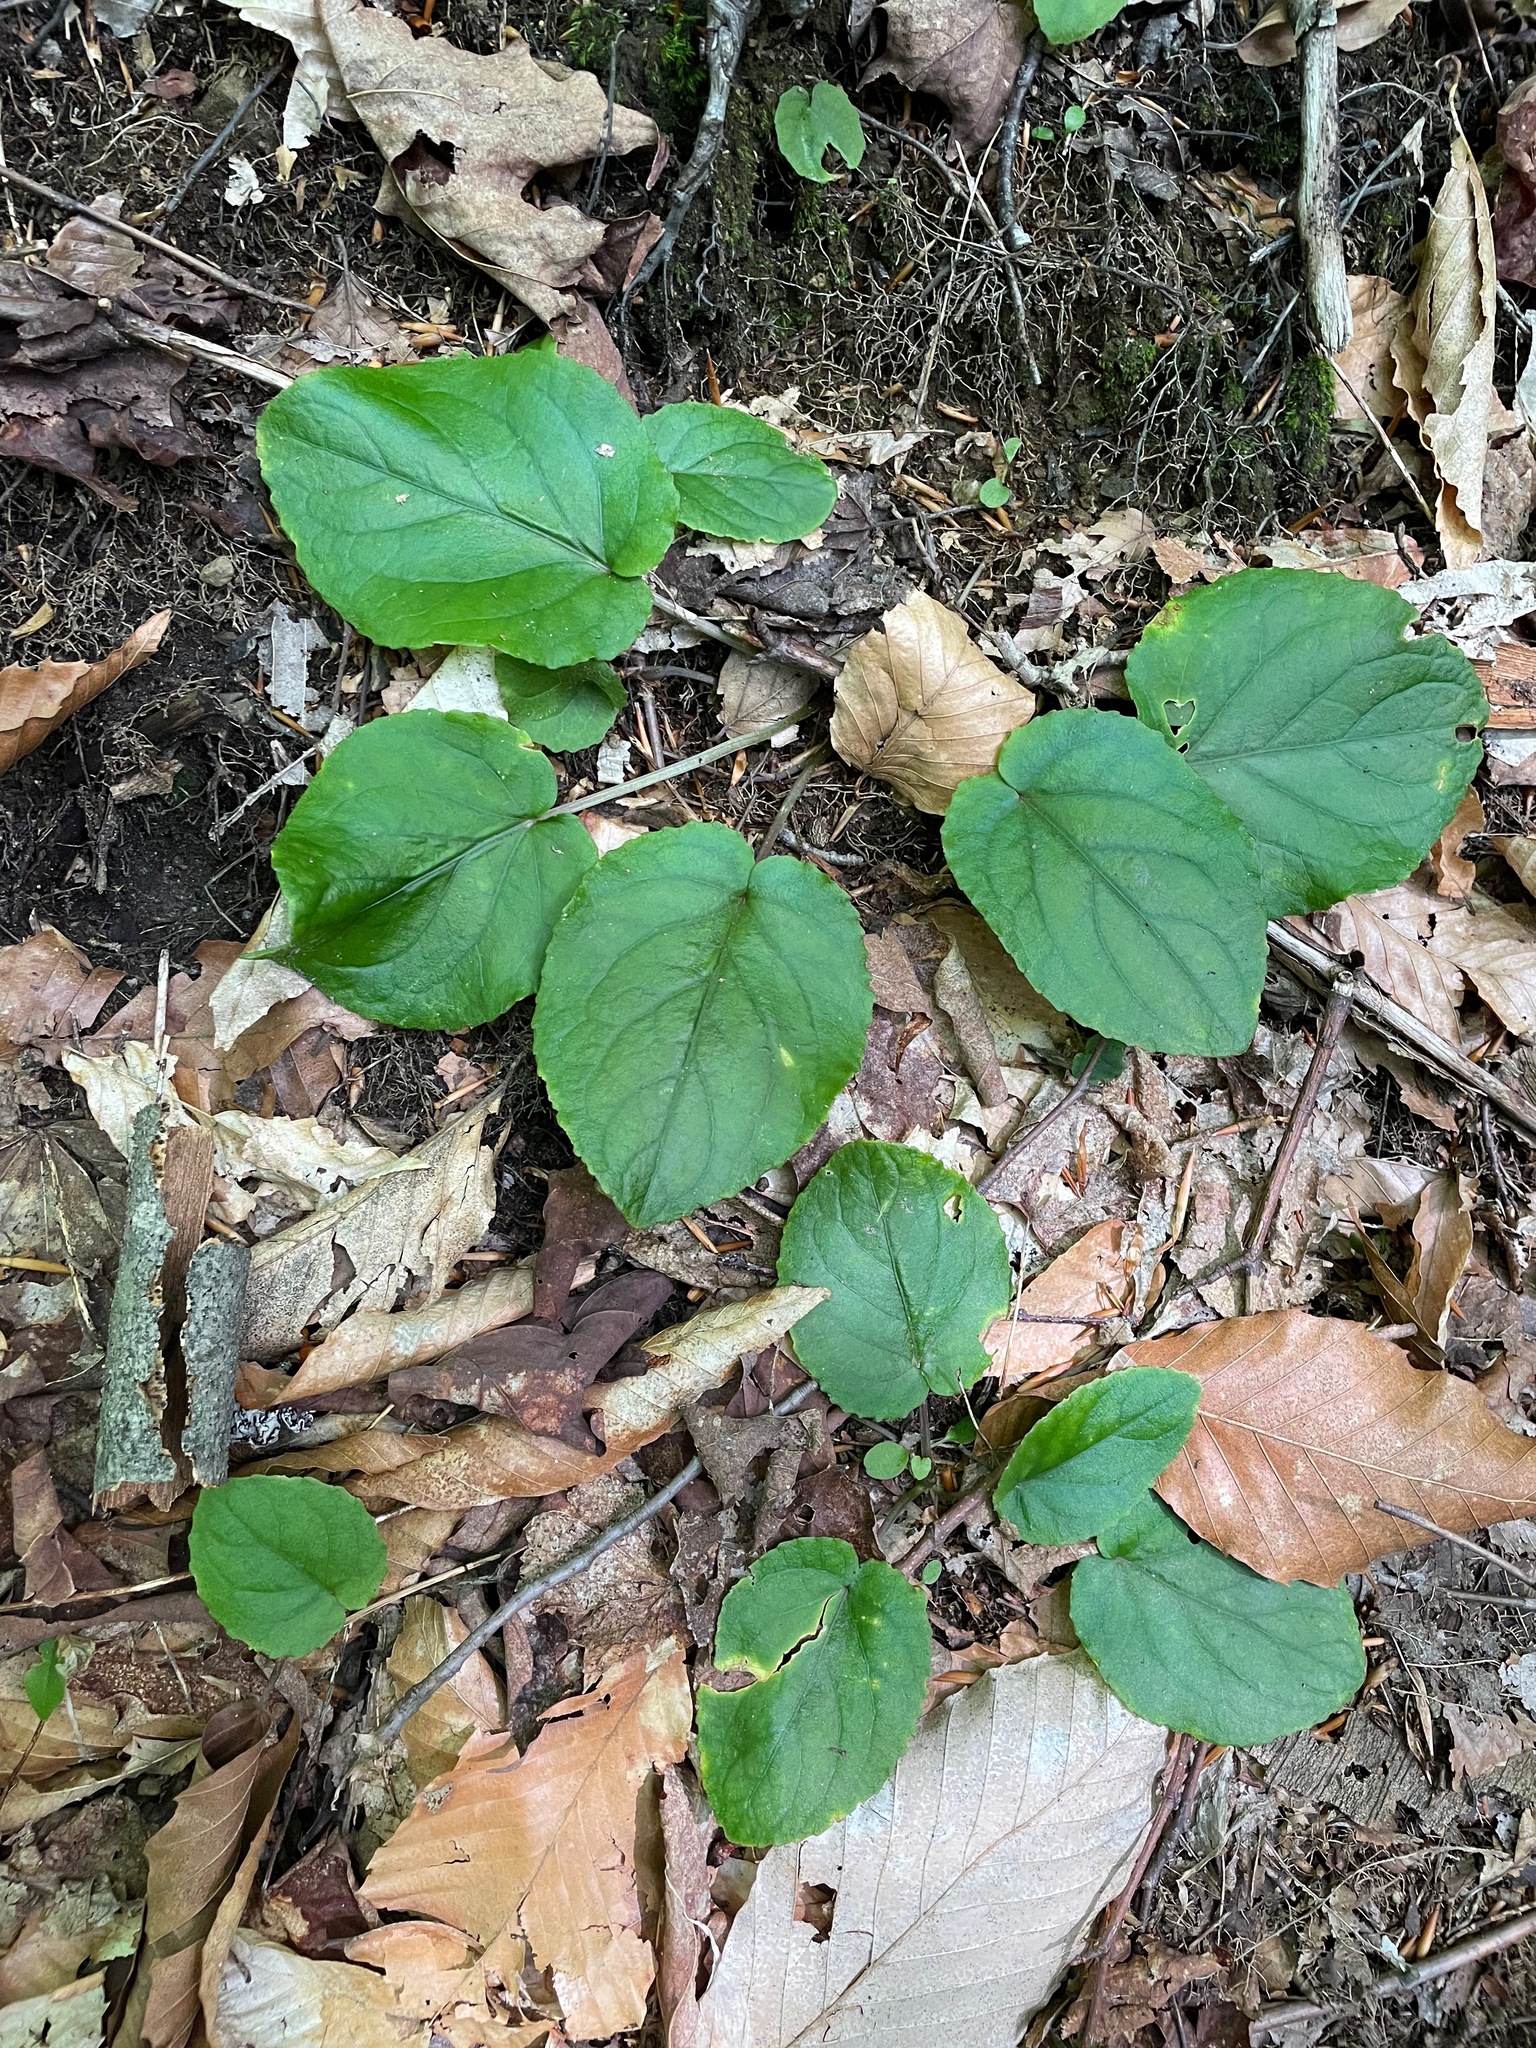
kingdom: Plantae
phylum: Tracheophyta
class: Magnoliopsida
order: Malpighiales
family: Violaceae
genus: Viola
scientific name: Viola rotundifolia
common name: Early yellow violet
